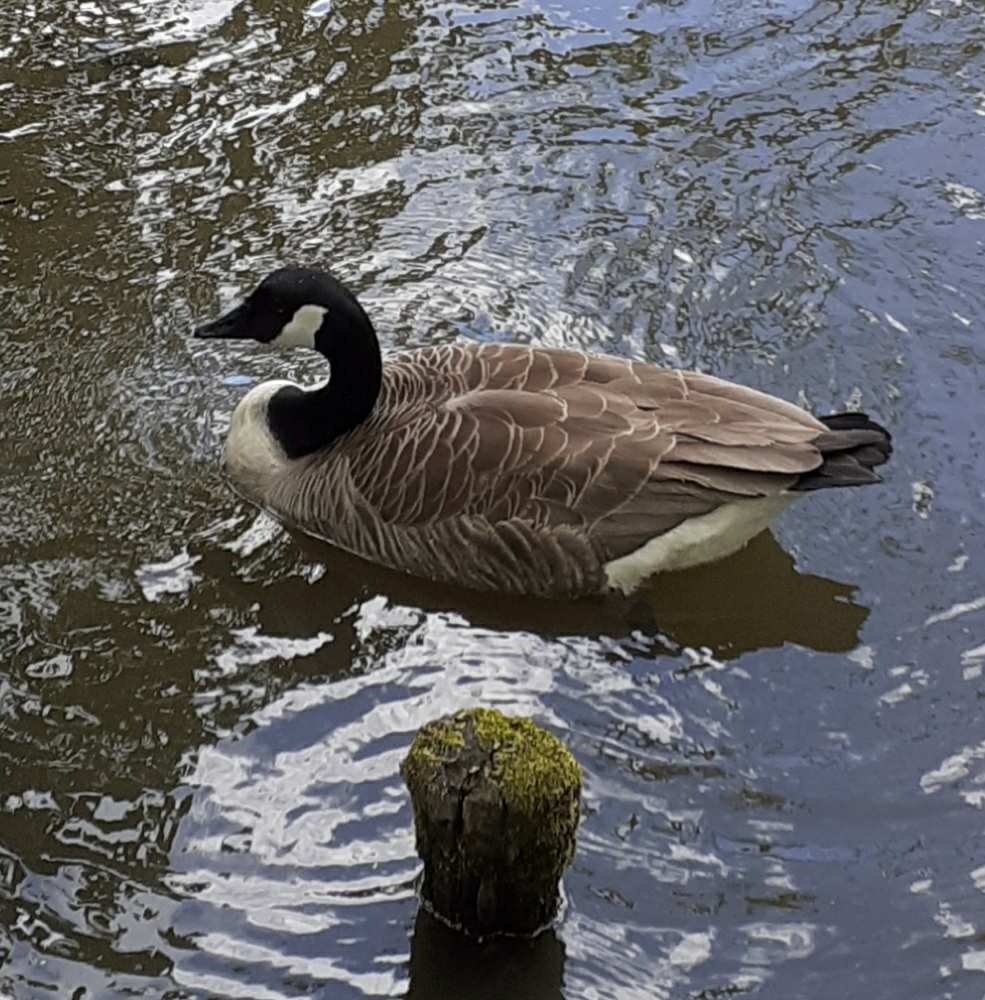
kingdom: Animalia
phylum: Chordata
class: Aves
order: Anseriformes
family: Anatidae
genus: Branta
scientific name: Branta canadensis
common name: Canada goose
